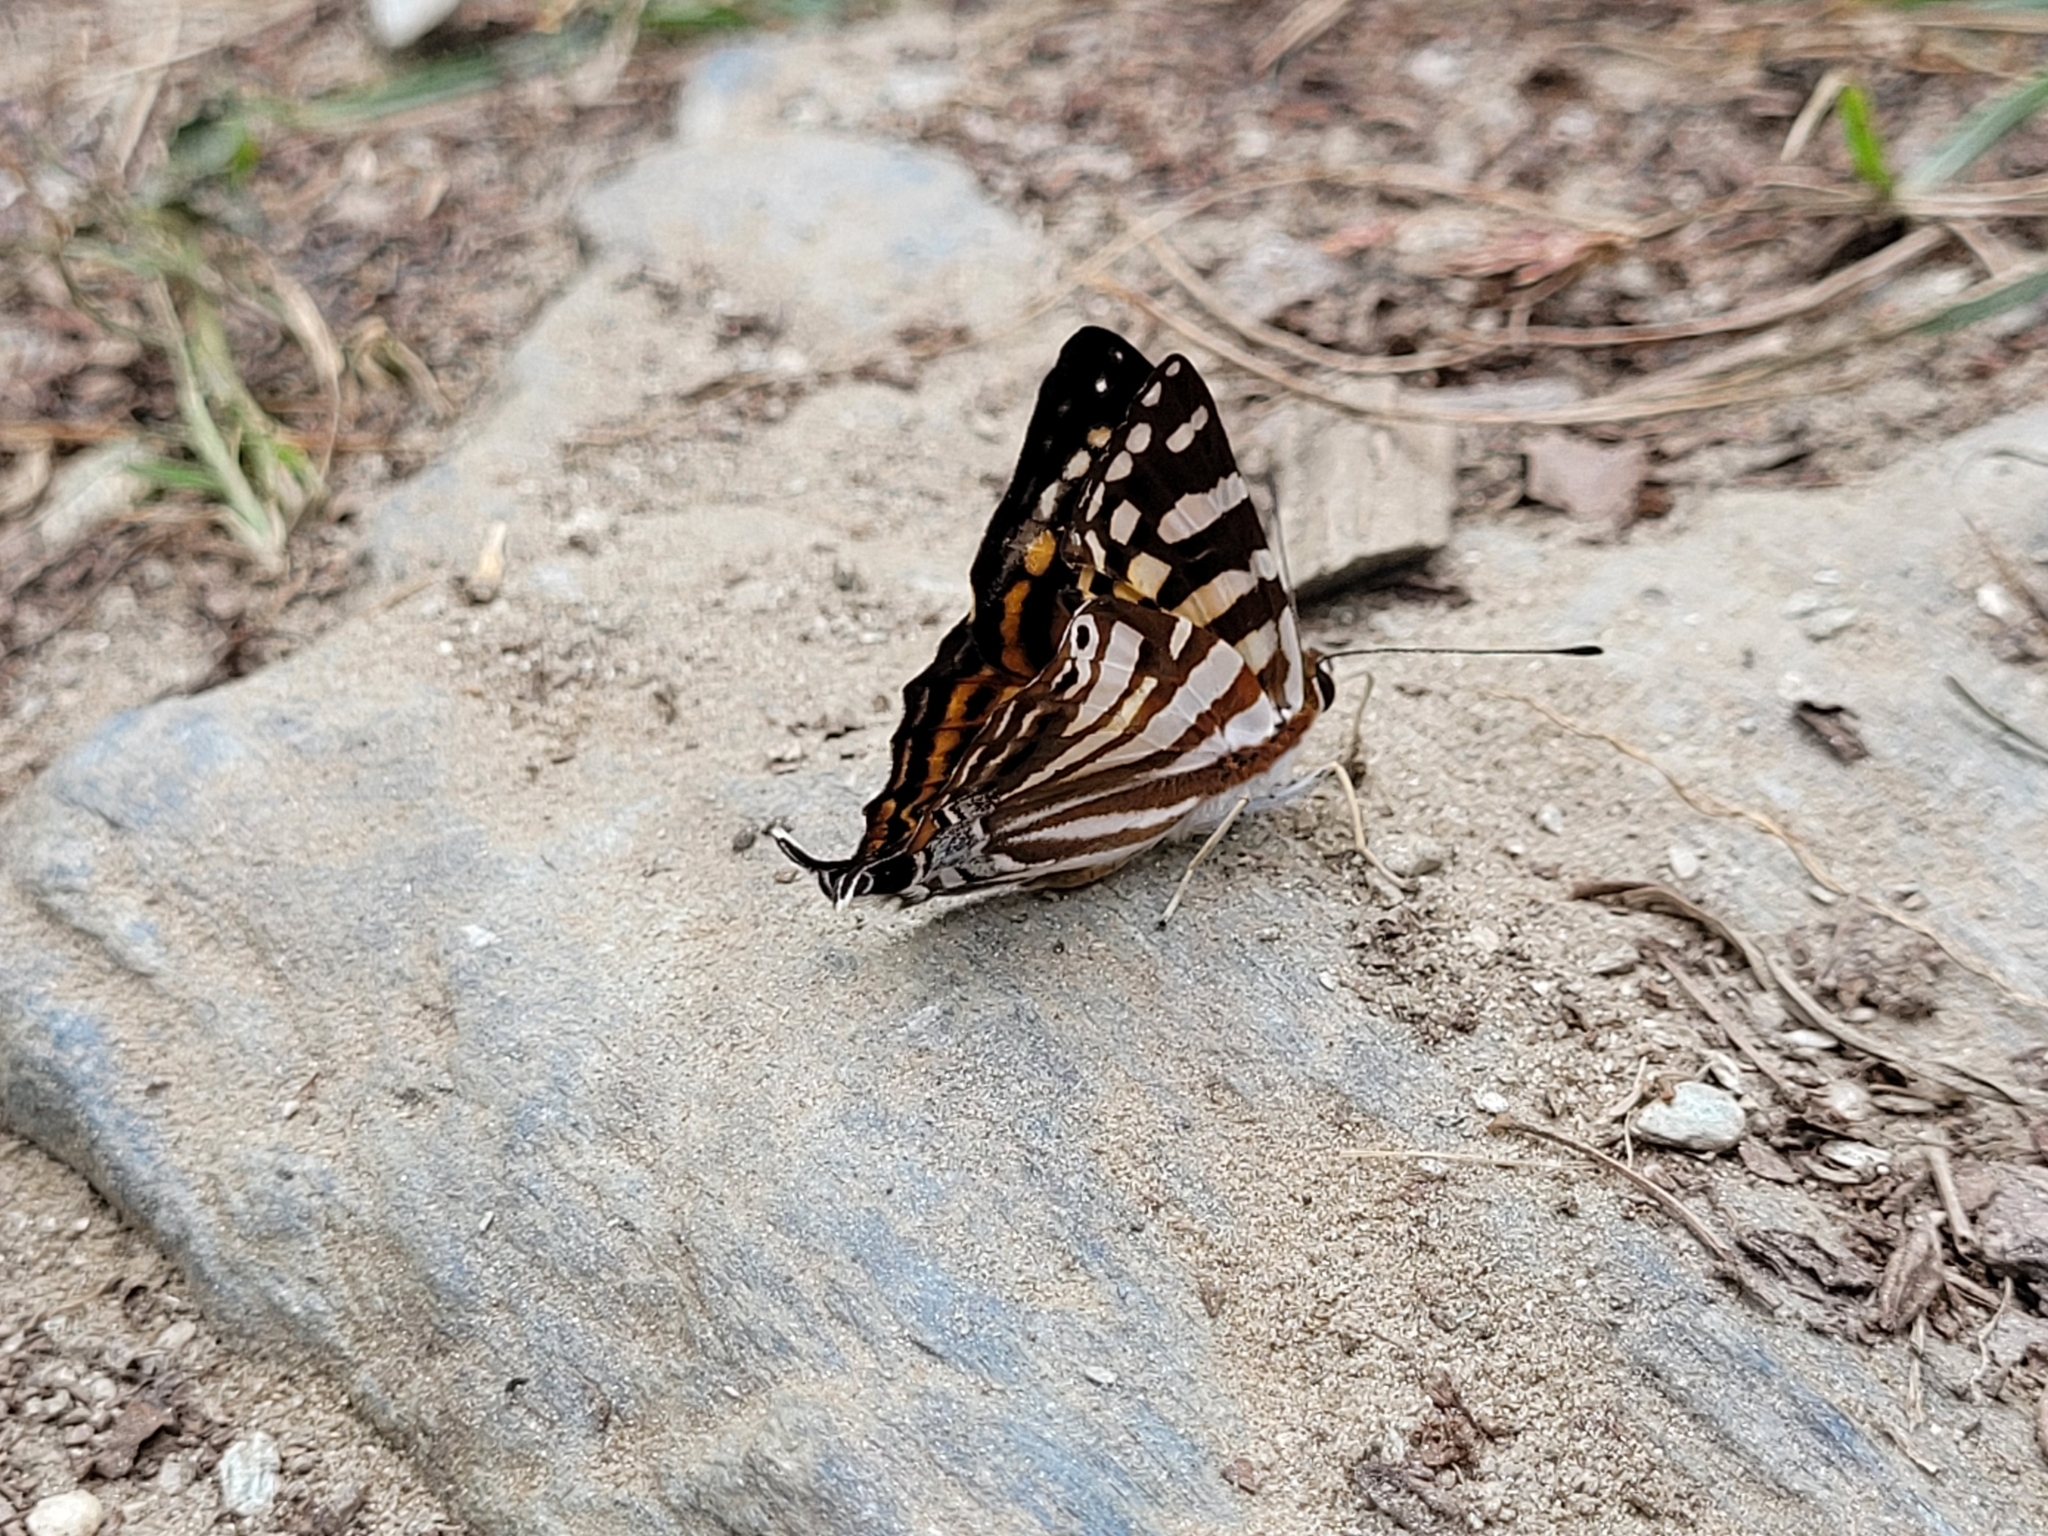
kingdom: Animalia
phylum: Arthropoda
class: Insecta
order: Lepidoptera
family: Lycaenidae
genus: Dodona
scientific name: Dodona egeon
